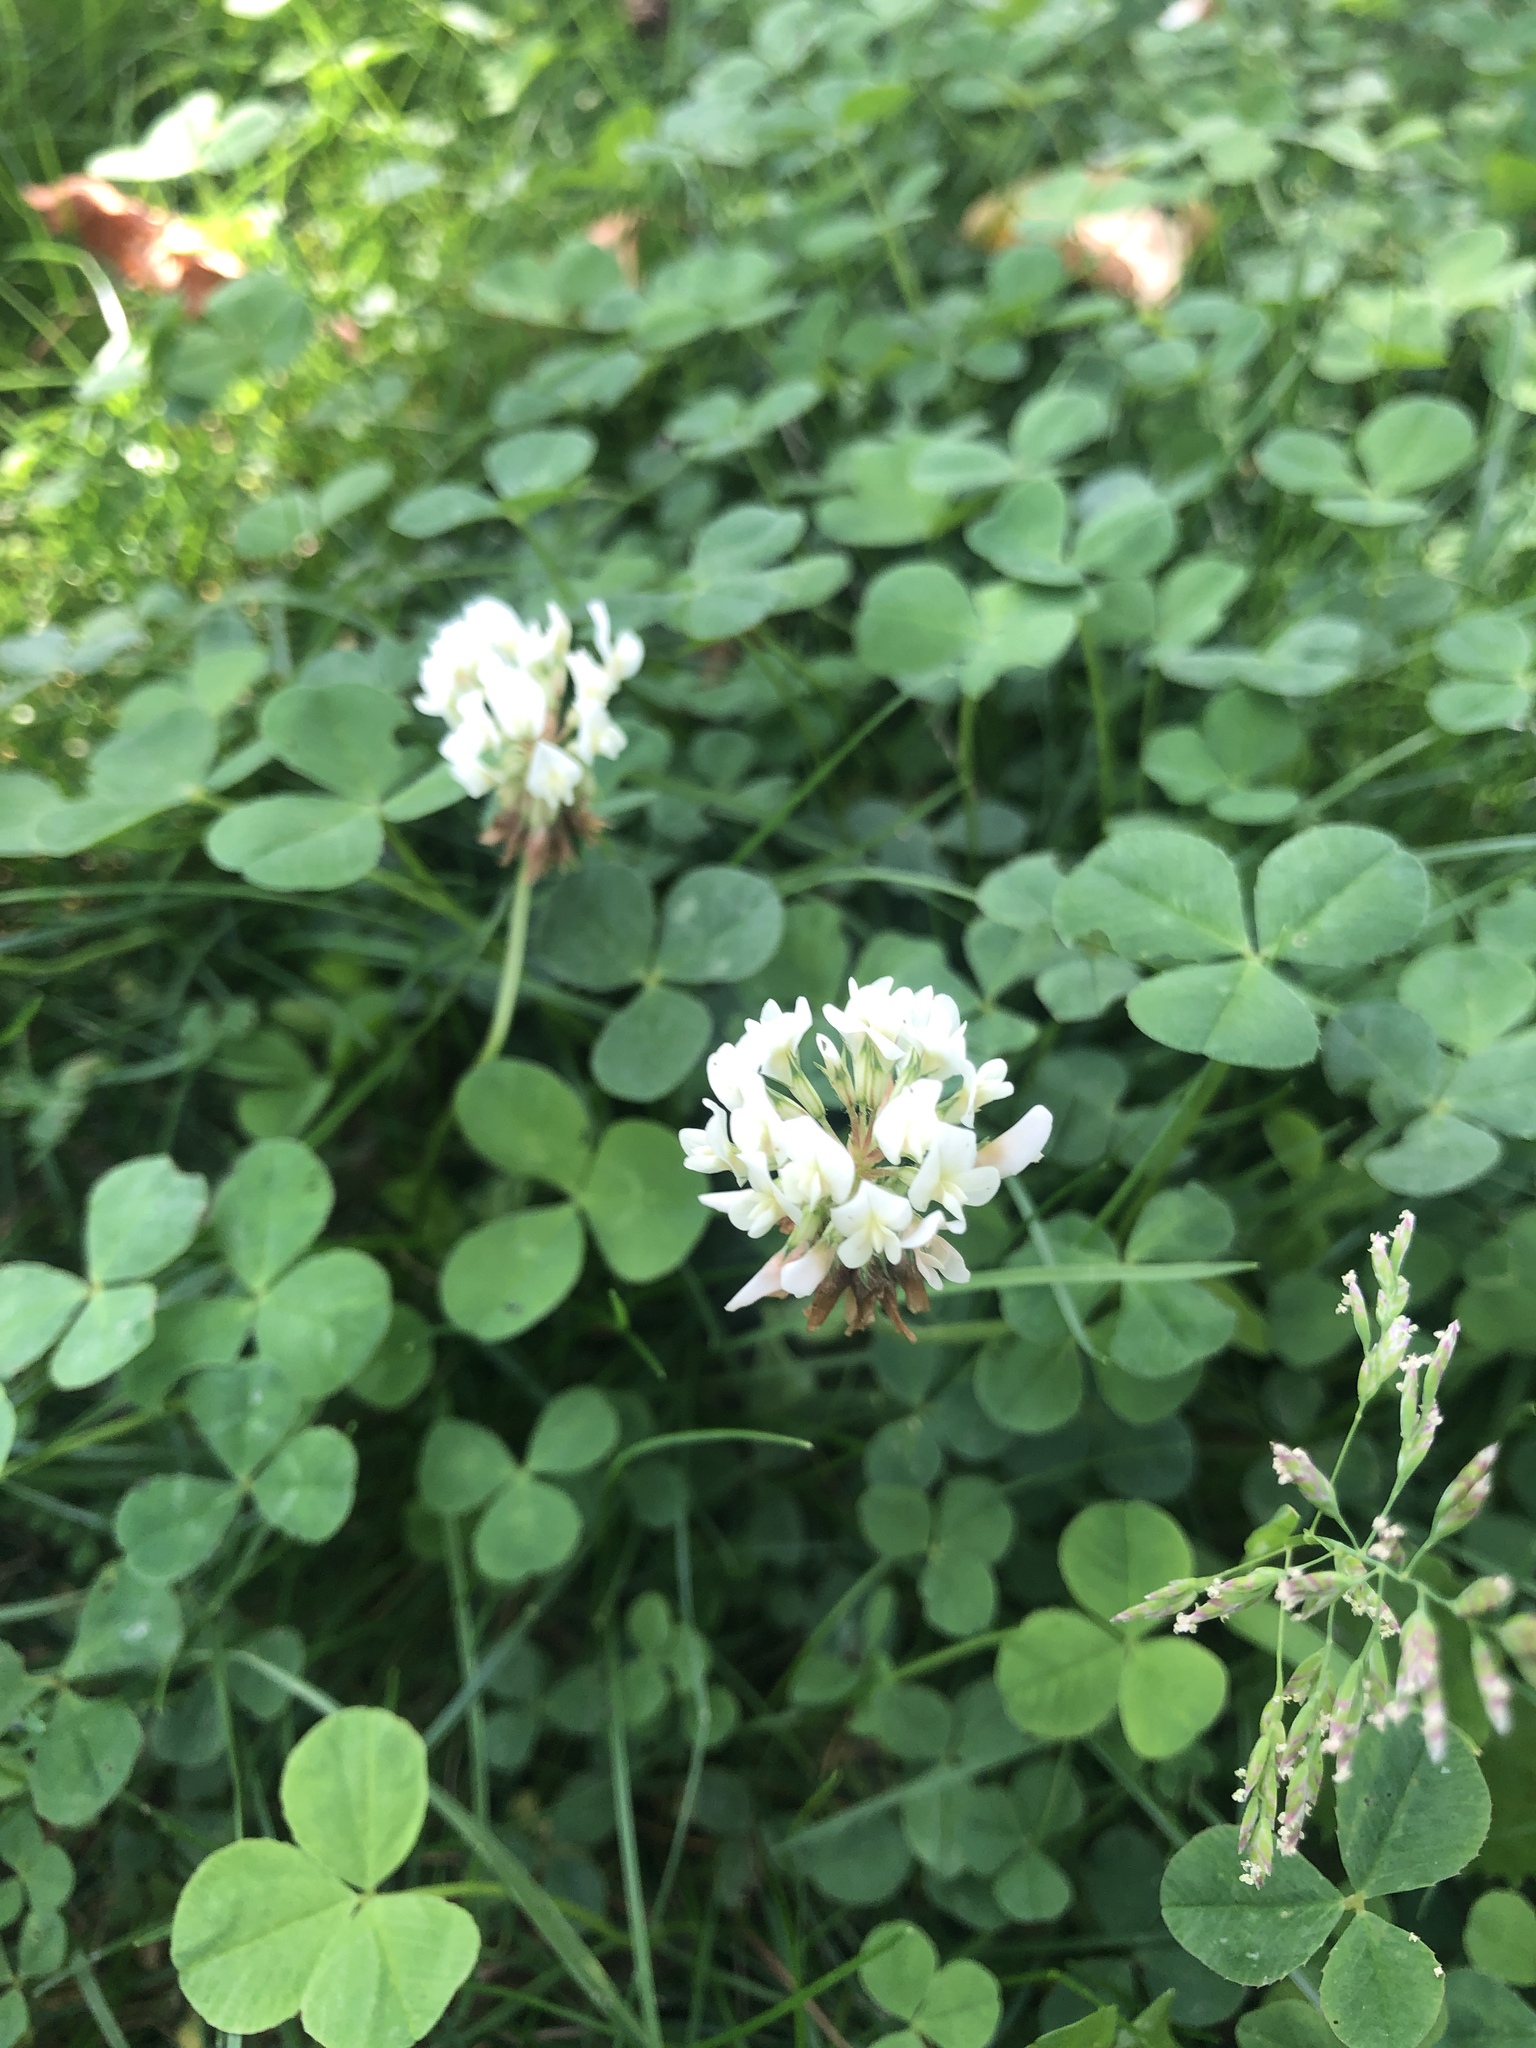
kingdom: Plantae
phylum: Tracheophyta
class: Magnoliopsida
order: Fabales
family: Fabaceae
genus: Trifolium
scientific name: Trifolium repens
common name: White clover
